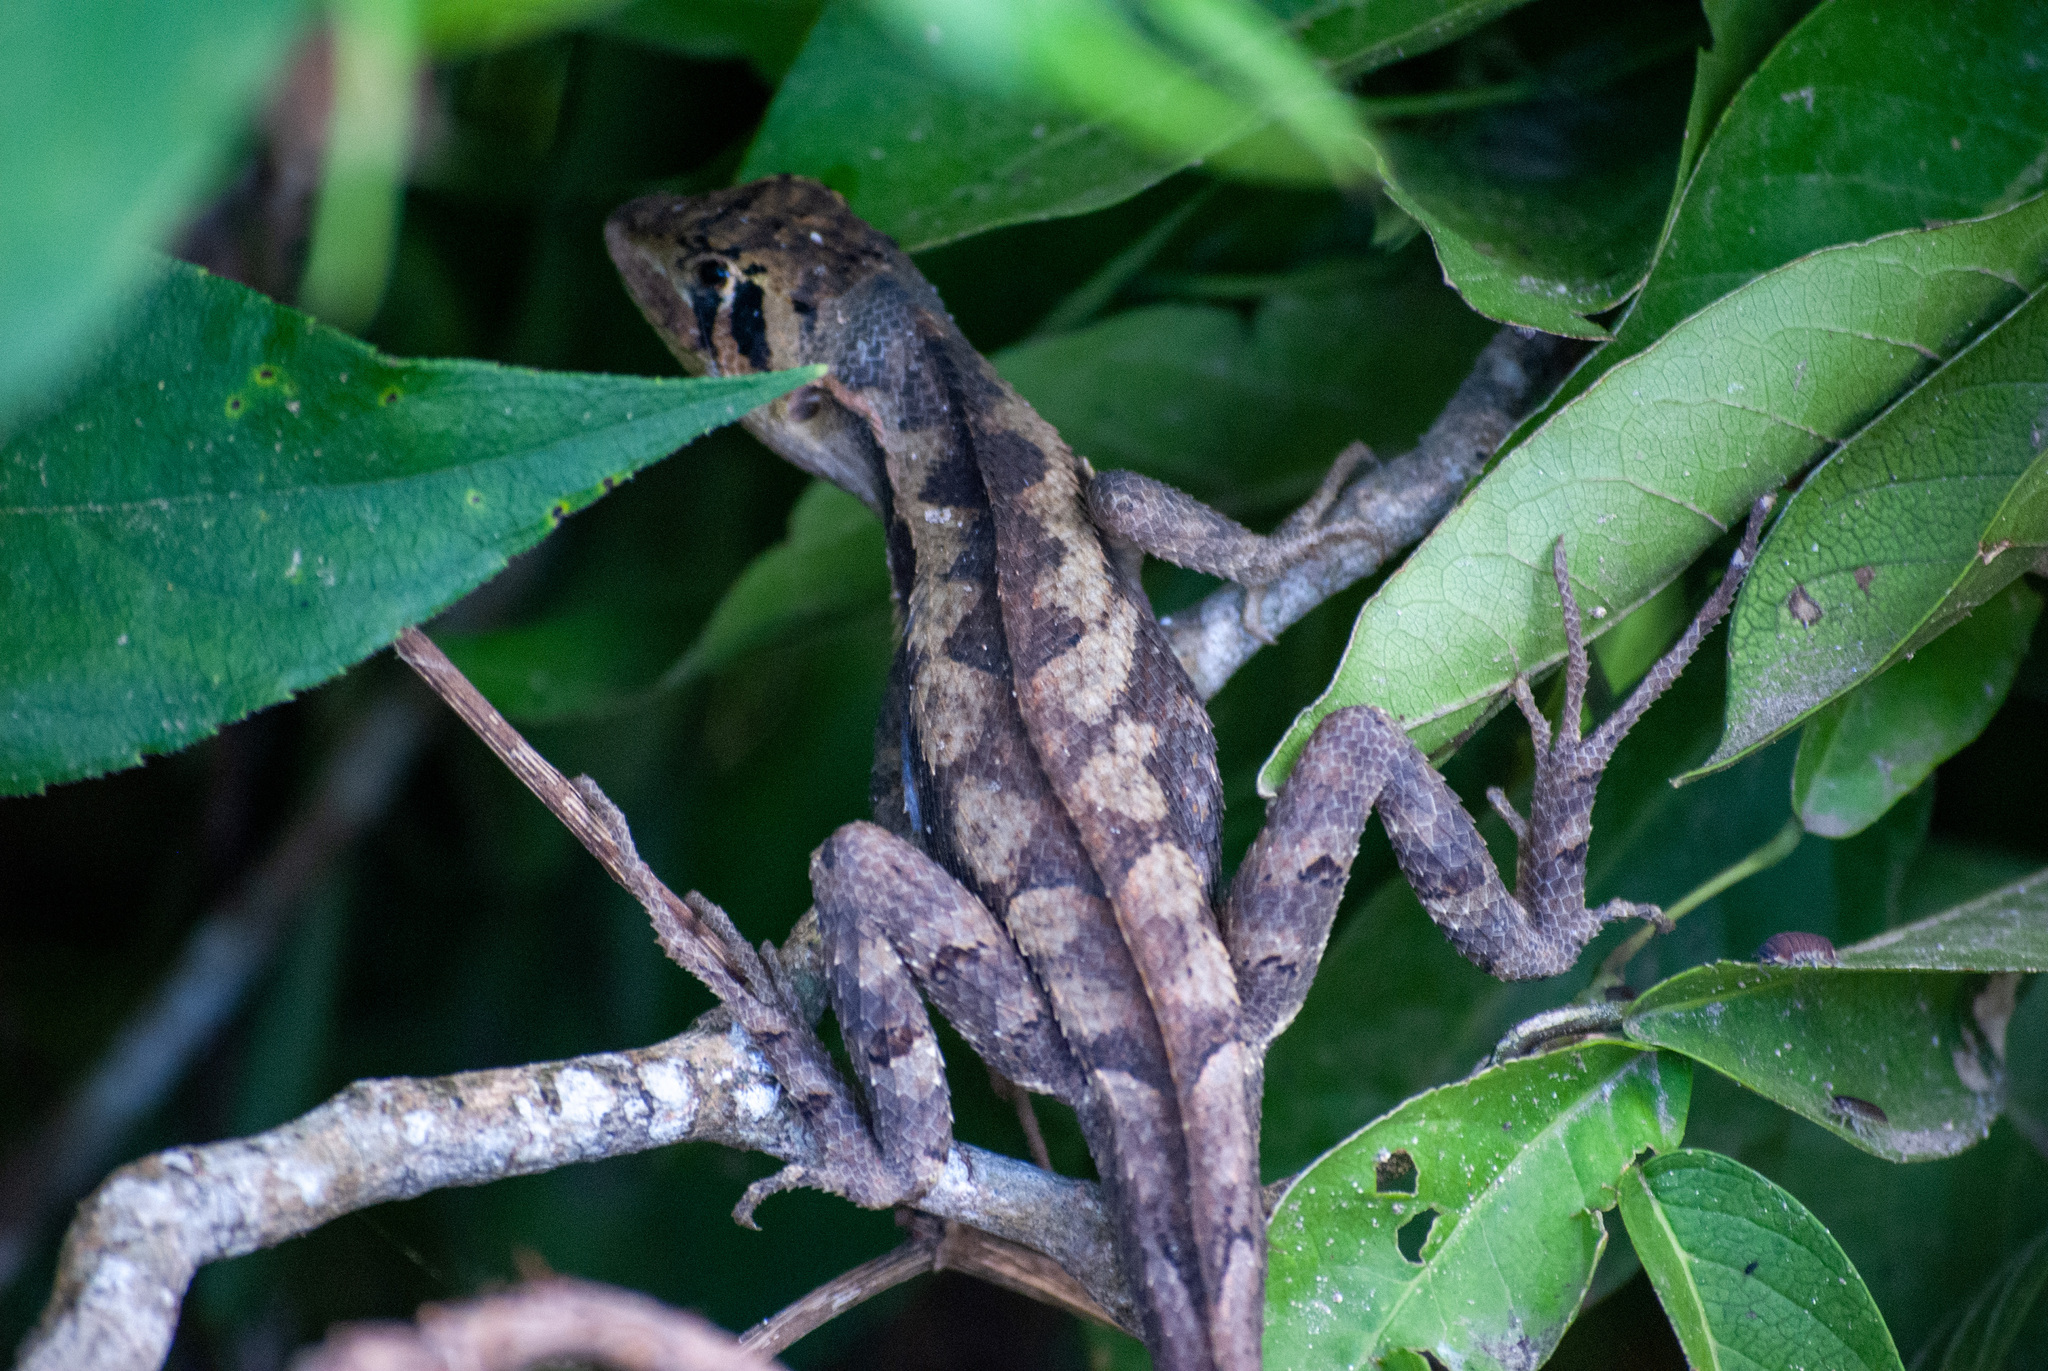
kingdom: Animalia
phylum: Chordata
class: Squamata
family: Tropiduridae
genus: Stenocercus
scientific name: Stenocercus erythrogaster
